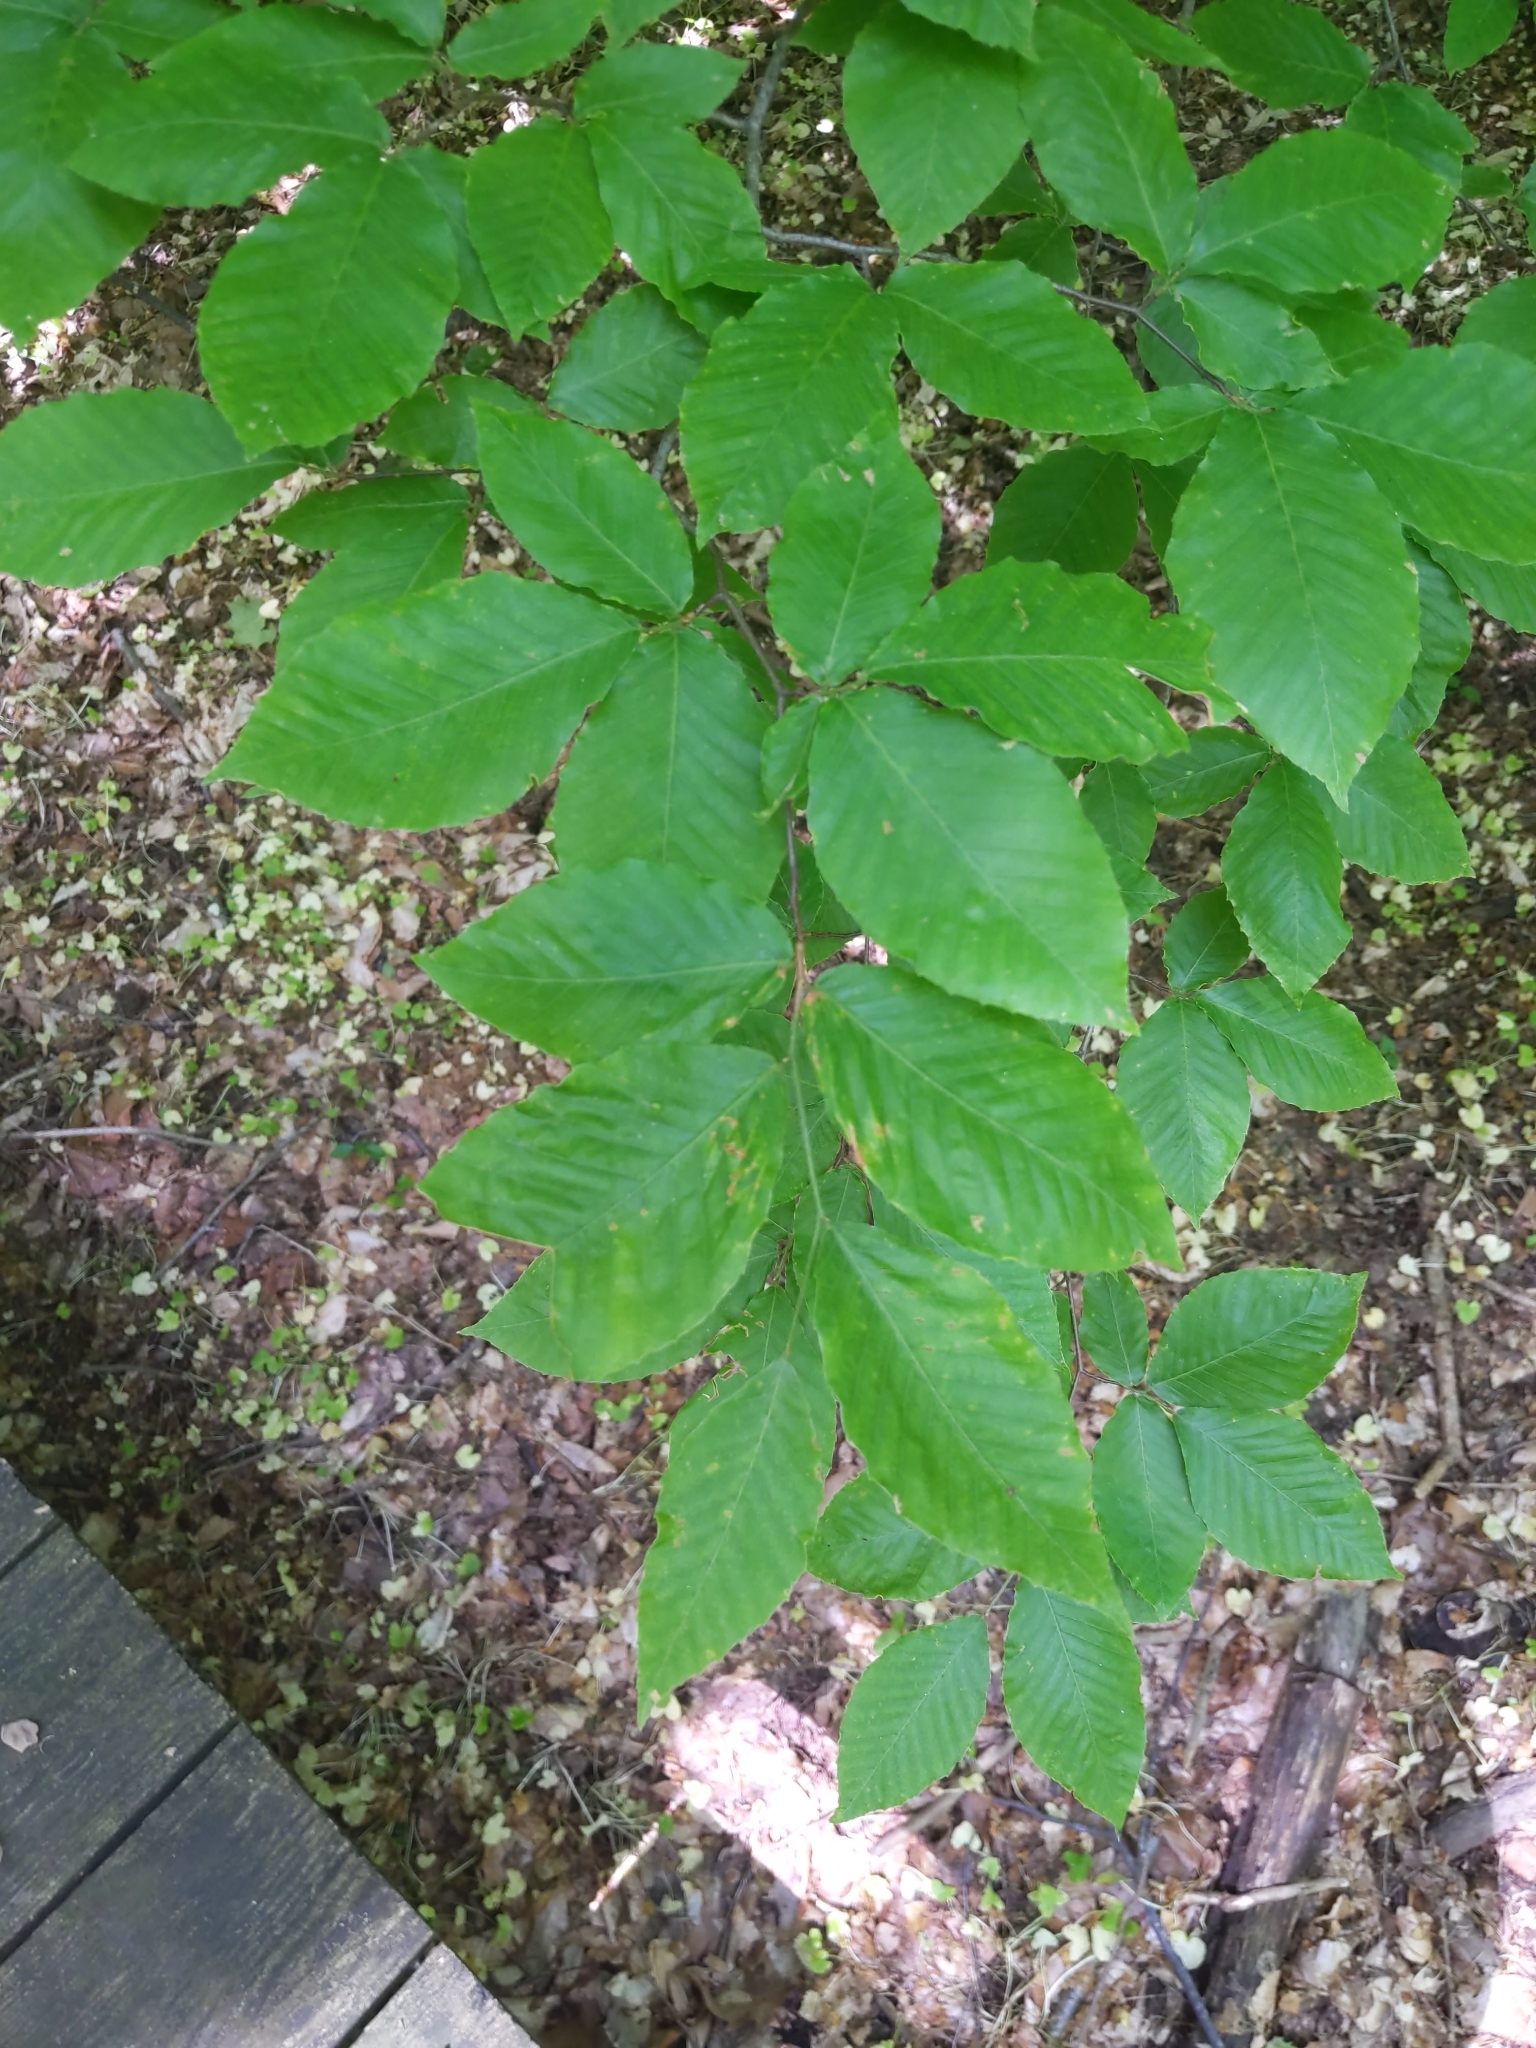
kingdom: Plantae
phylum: Tracheophyta
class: Magnoliopsida
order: Fagales
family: Fagaceae
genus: Fagus
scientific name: Fagus grandifolia
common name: American beech
